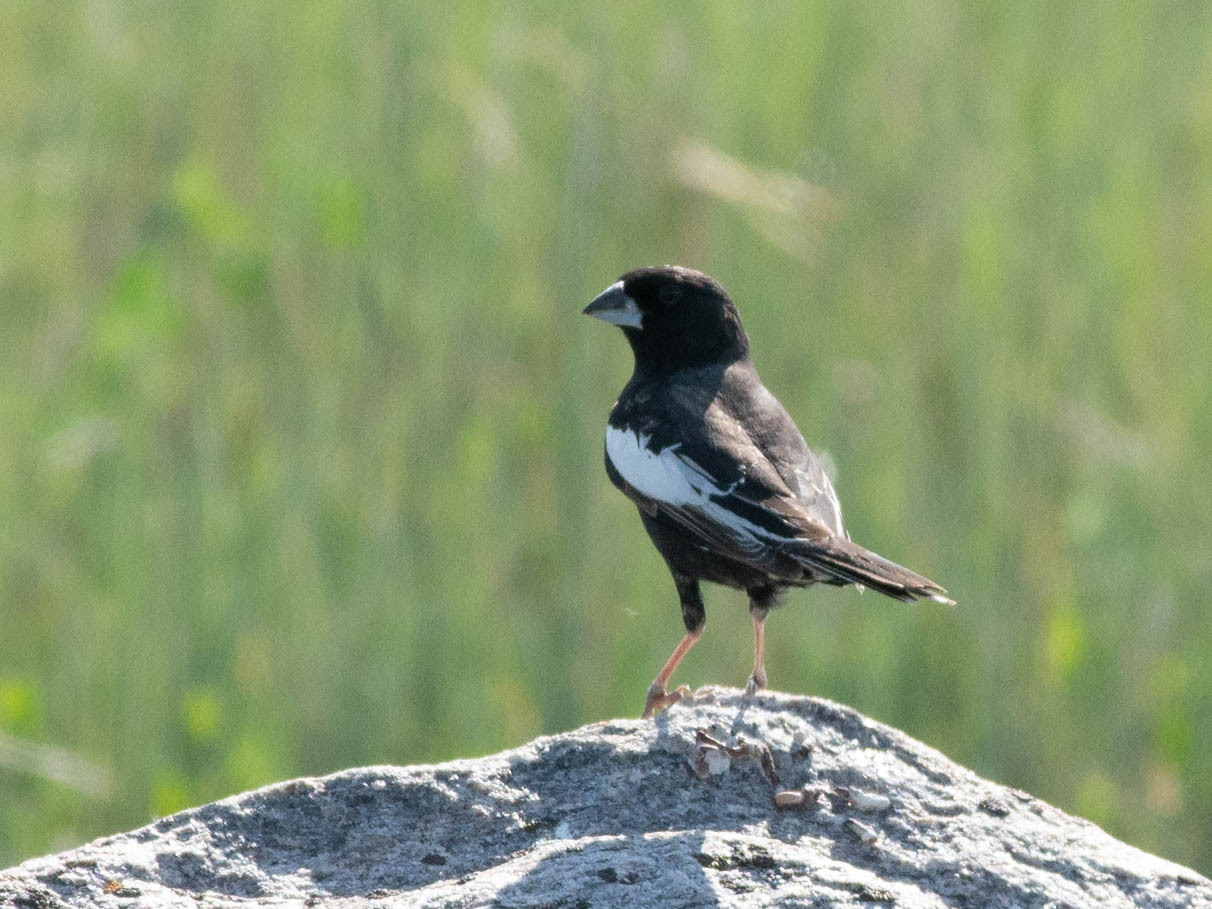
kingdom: Animalia
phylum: Chordata
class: Aves
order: Passeriformes
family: Passerellidae
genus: Calamospiza
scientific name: Calamospiza melanocorys
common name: Lark bunting
